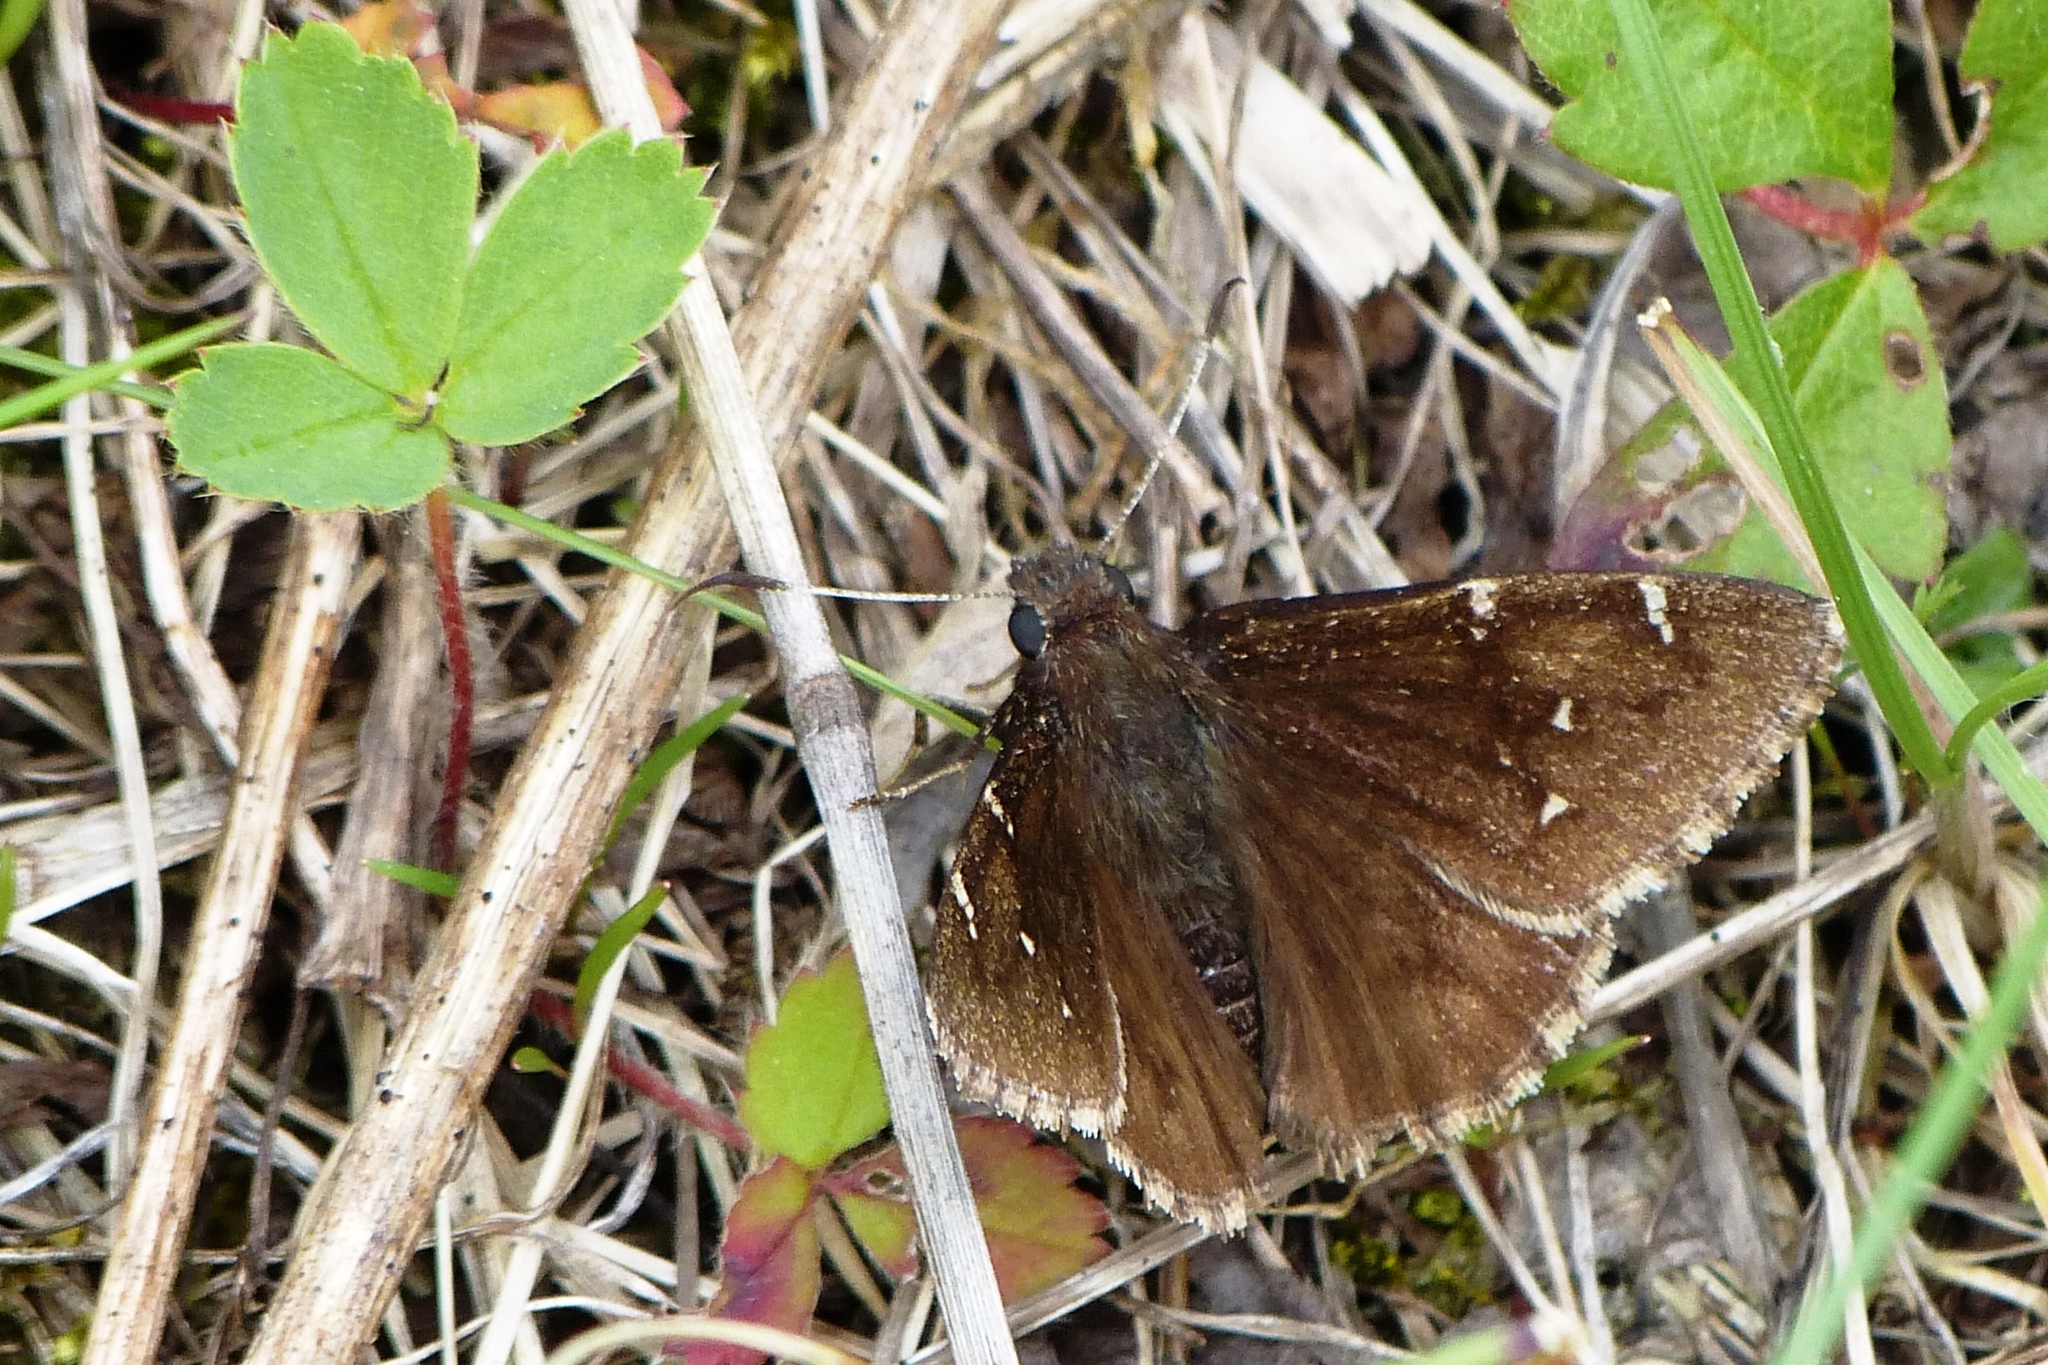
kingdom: Animalia
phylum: Arthropoda
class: Insecta
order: Lepidoptera
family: Hesperiidae
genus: Thorybes
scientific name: Thorybes pylades
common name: Northern cloudywing
